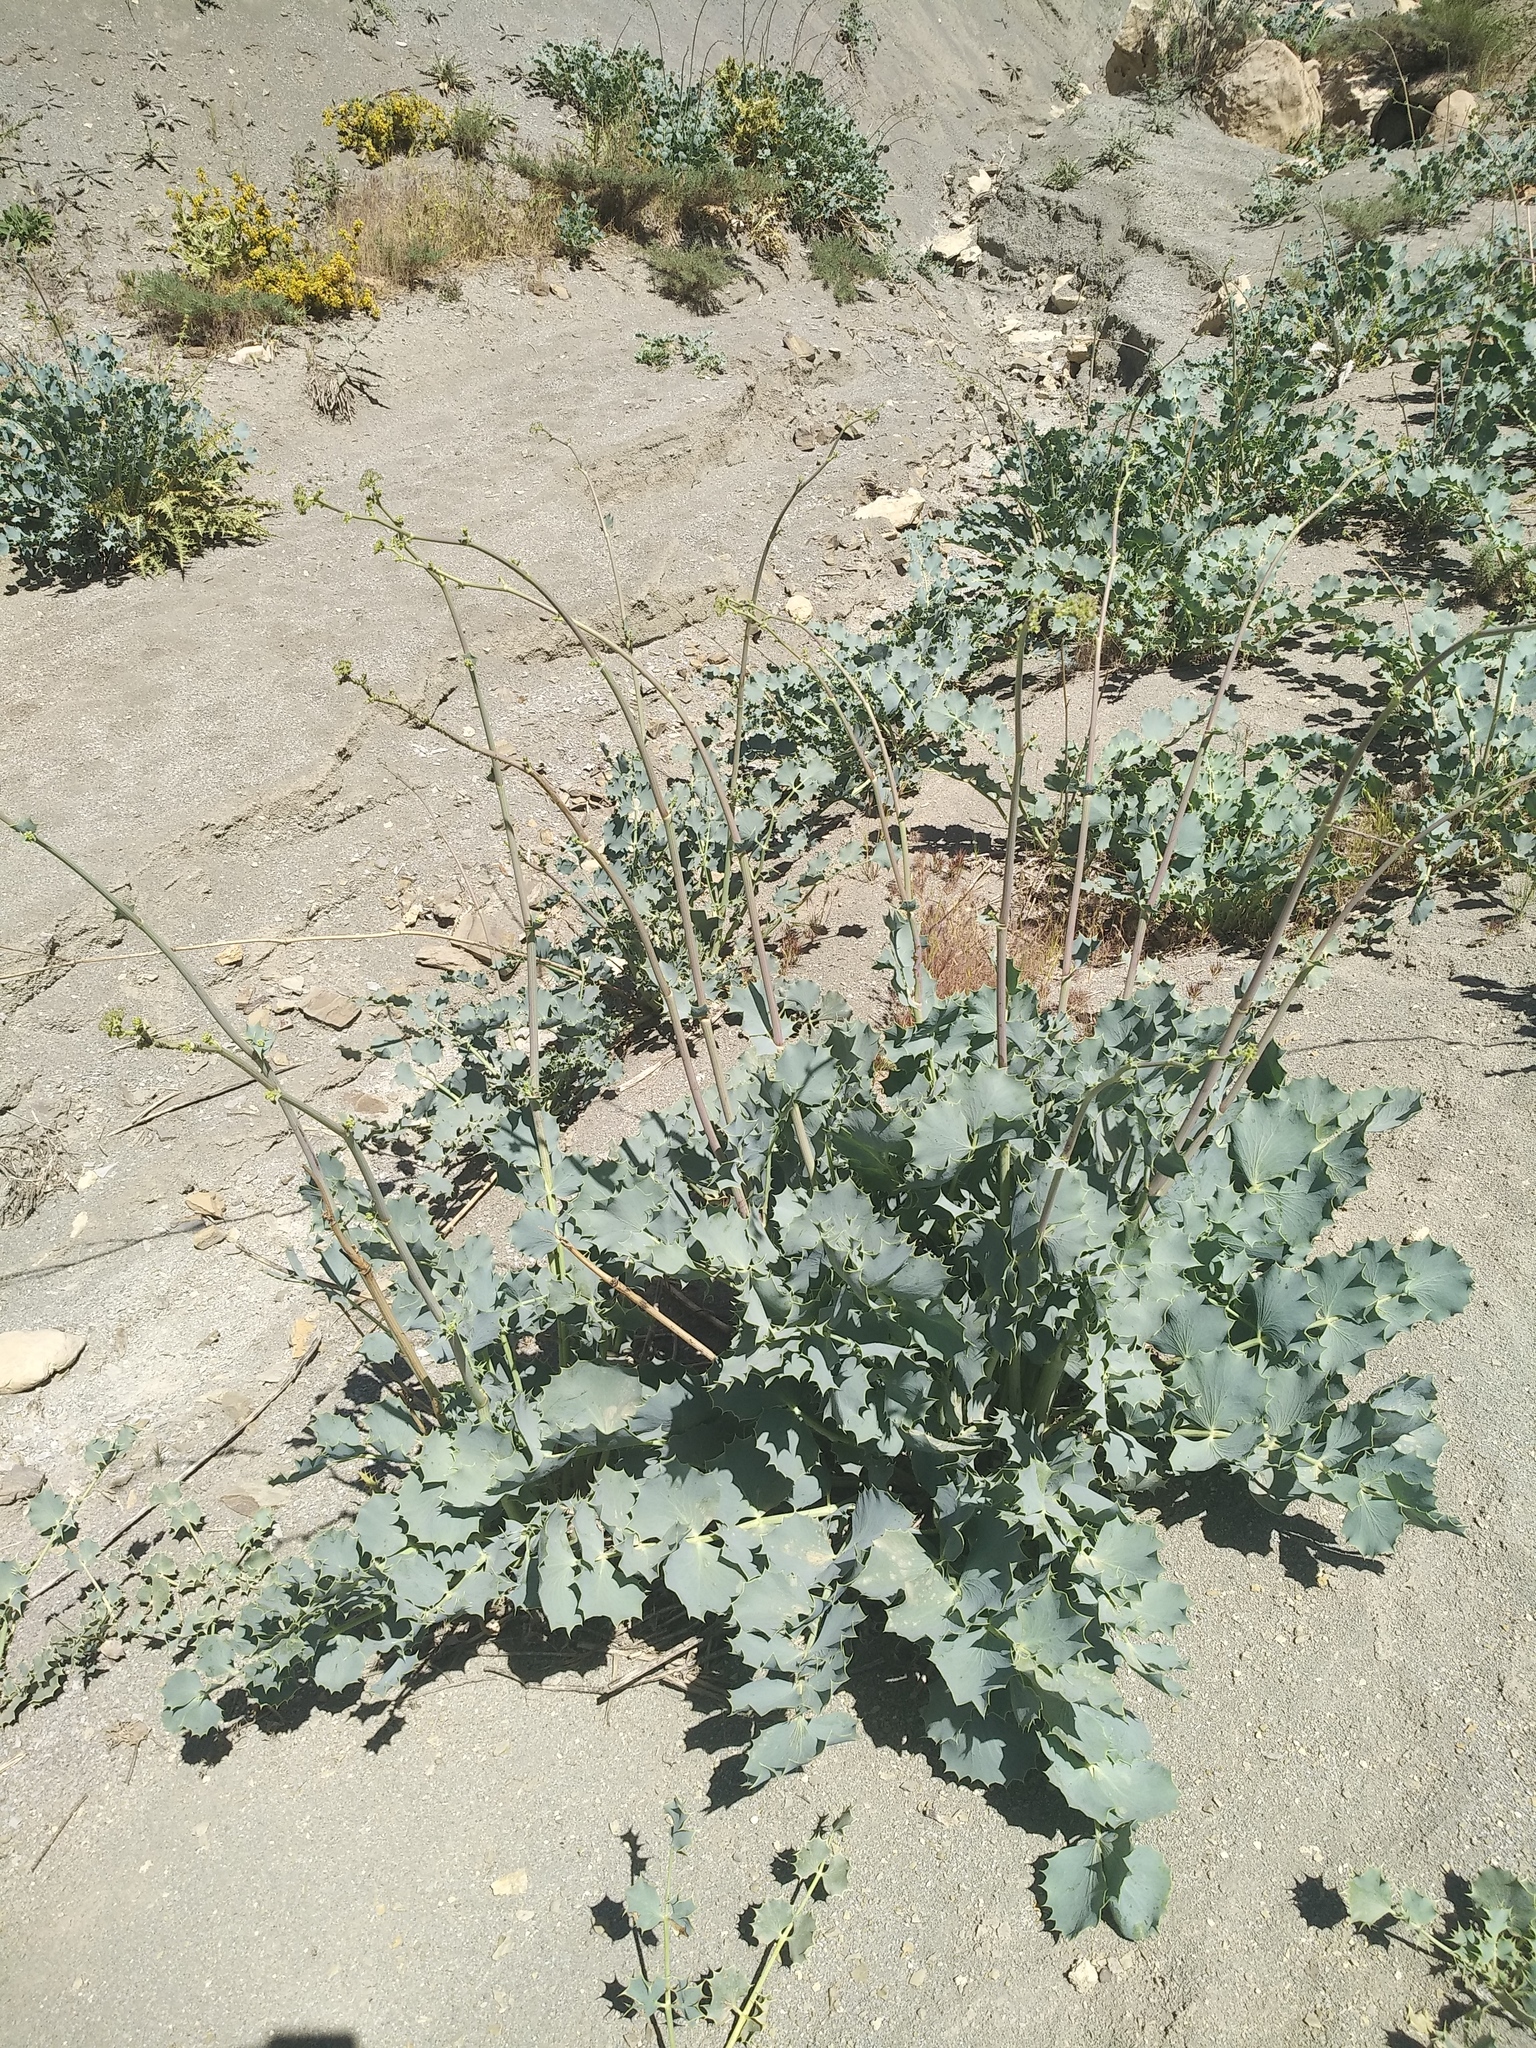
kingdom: Plantae
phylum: Tracheophyta
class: Magnoliopsida
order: Apiales
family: Apiaceae
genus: Azilia
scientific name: Azilia eryngioides
